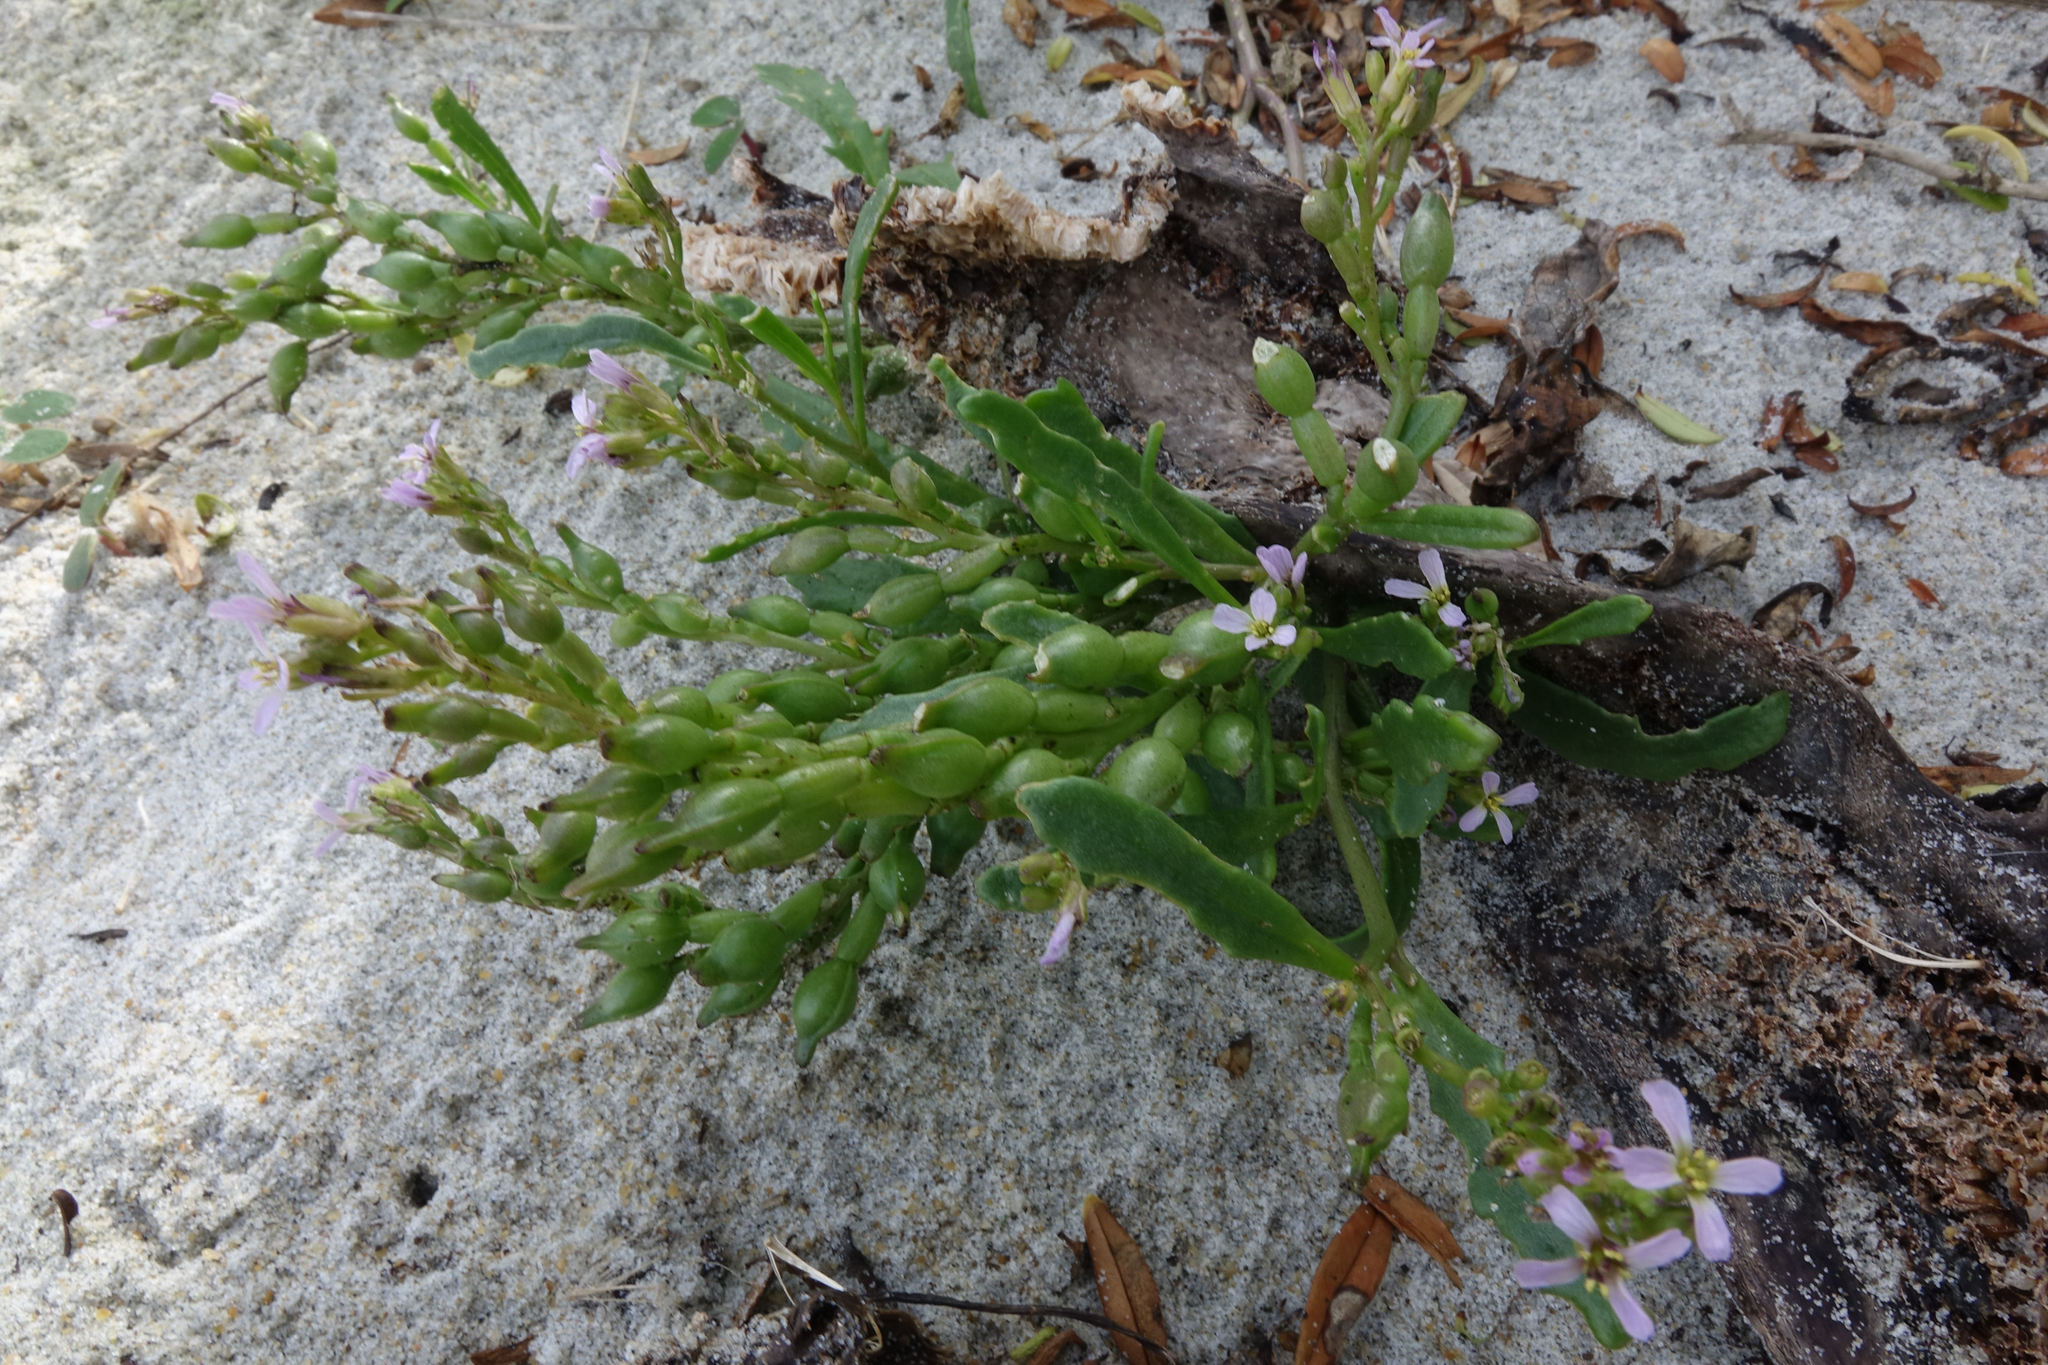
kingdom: Plantae
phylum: Tracheophyta
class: Magnoliopsida
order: Brassicales
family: Brassicaceae
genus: Cakile
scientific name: Cakile edentula
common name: American sea rocket
